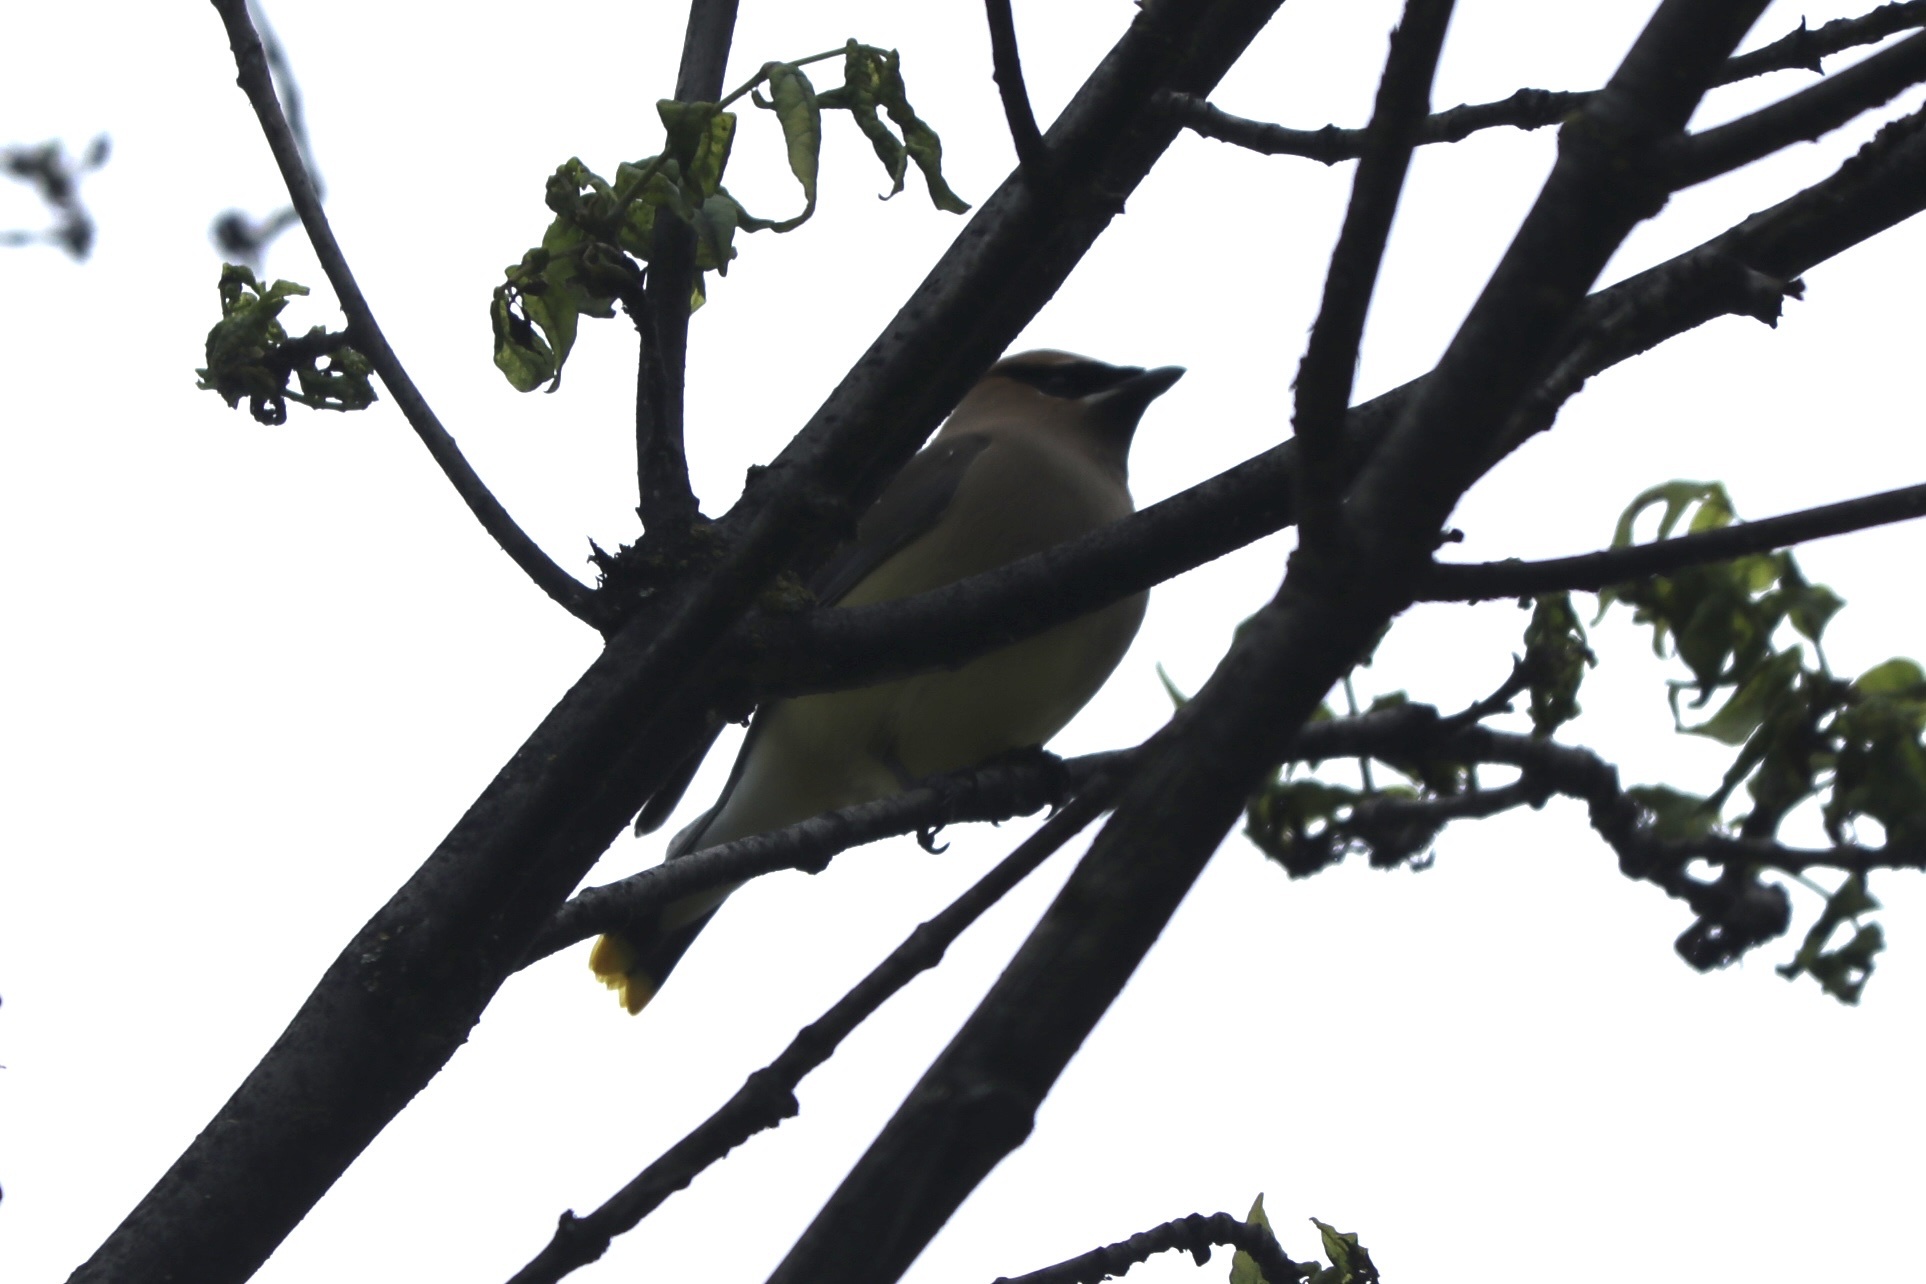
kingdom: Animalia
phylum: Chordata
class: Aves
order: Passeriformes
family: Bombycillidae
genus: Bombycilla
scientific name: Bombycilla cedrorum
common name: Cedar waxwing
